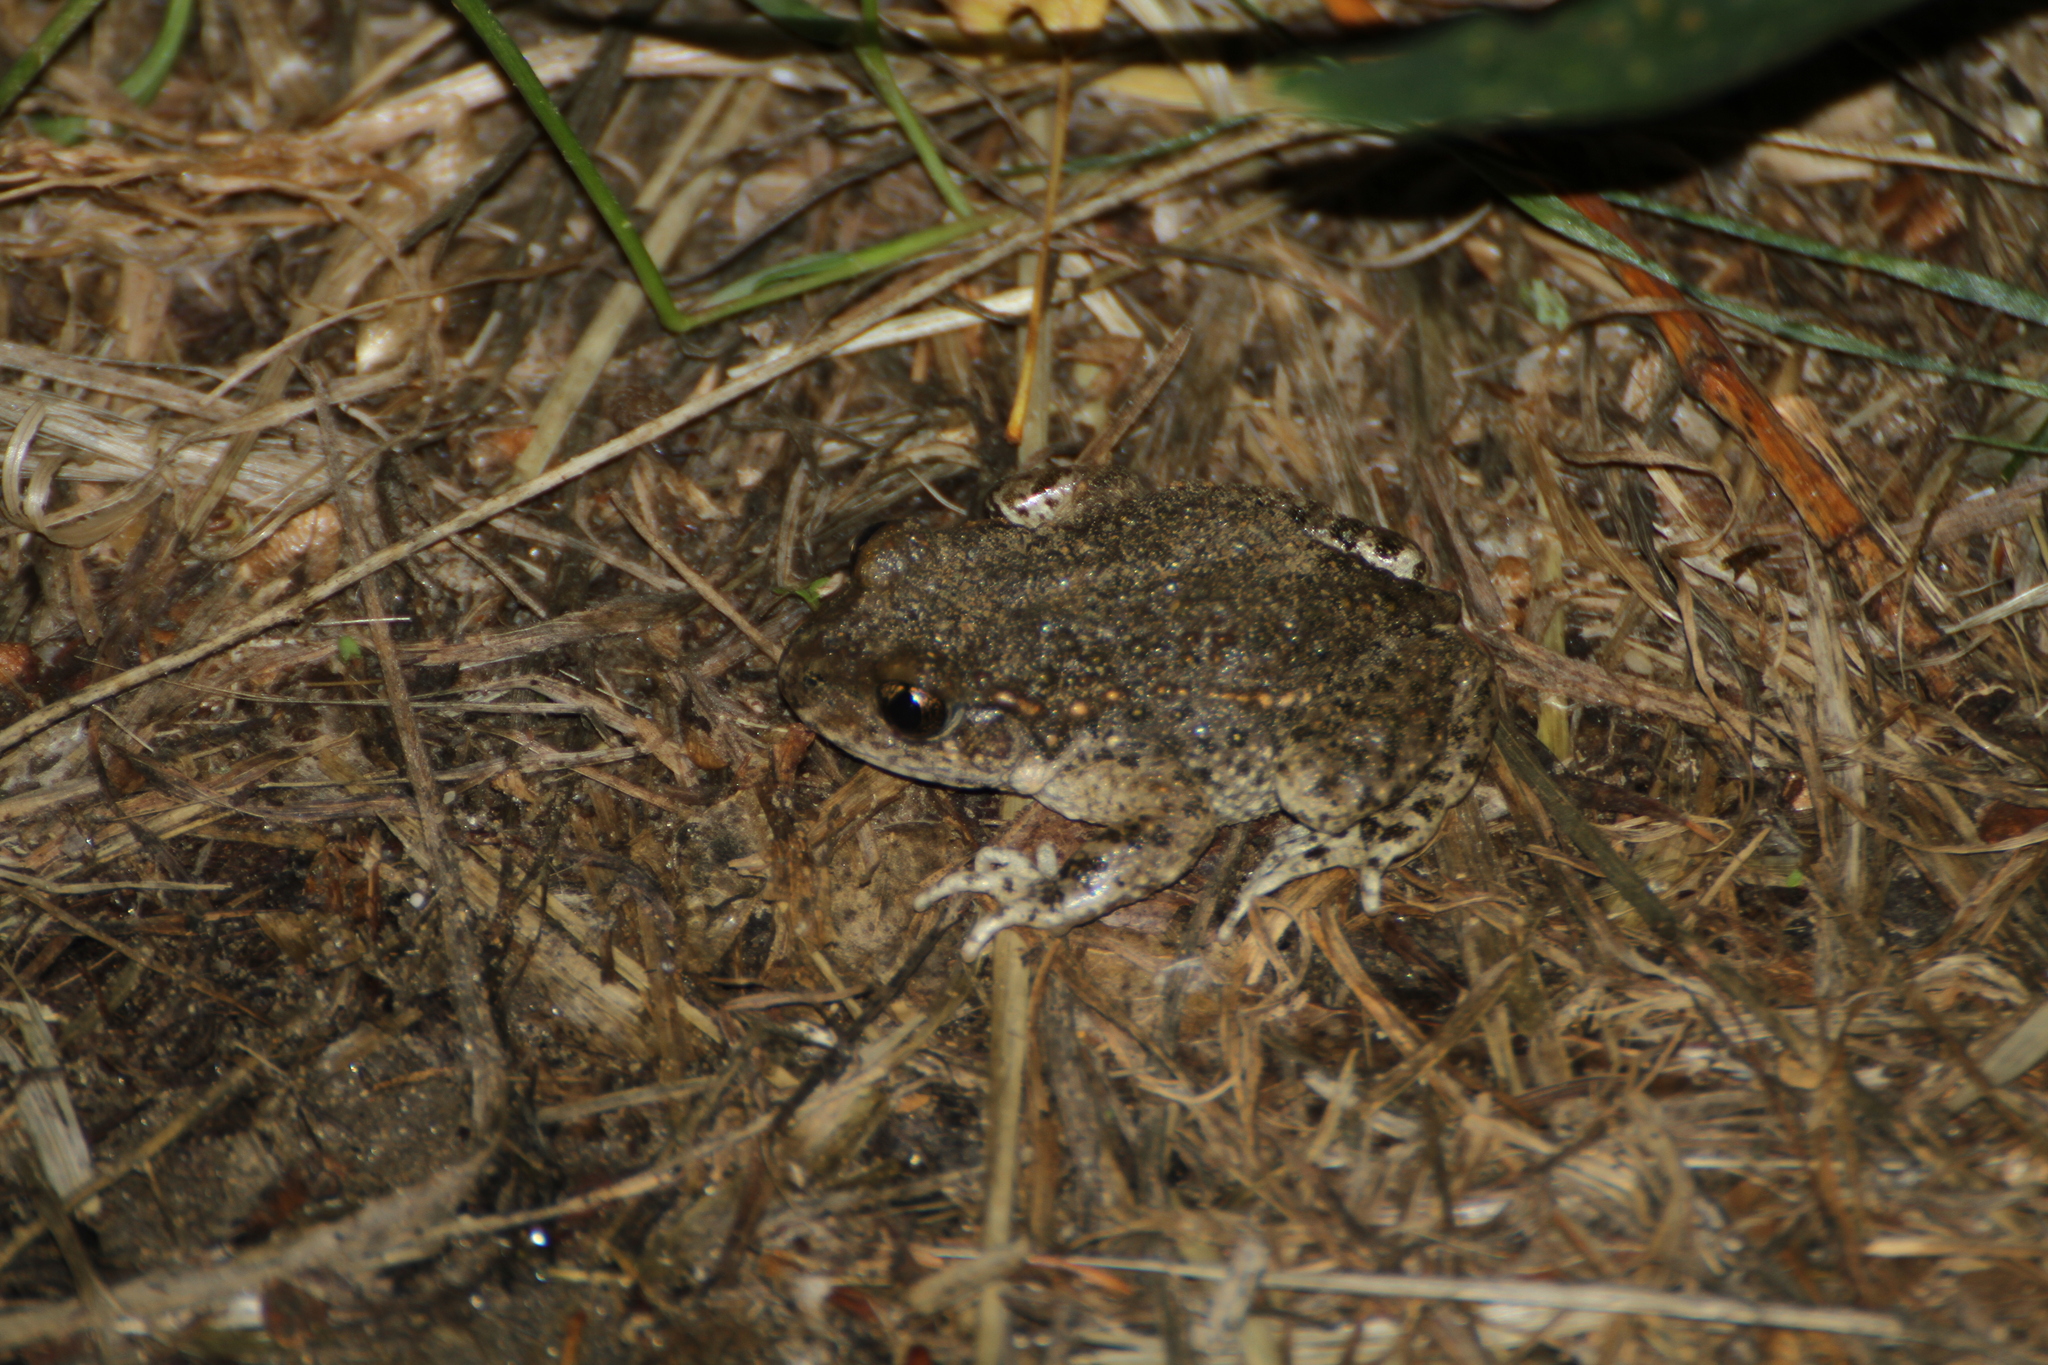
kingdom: Animalia
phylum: Chordata
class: Amphibia
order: Anura
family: Alytidae
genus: Alytes
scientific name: Alytes obstetricans
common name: Midwife toad
